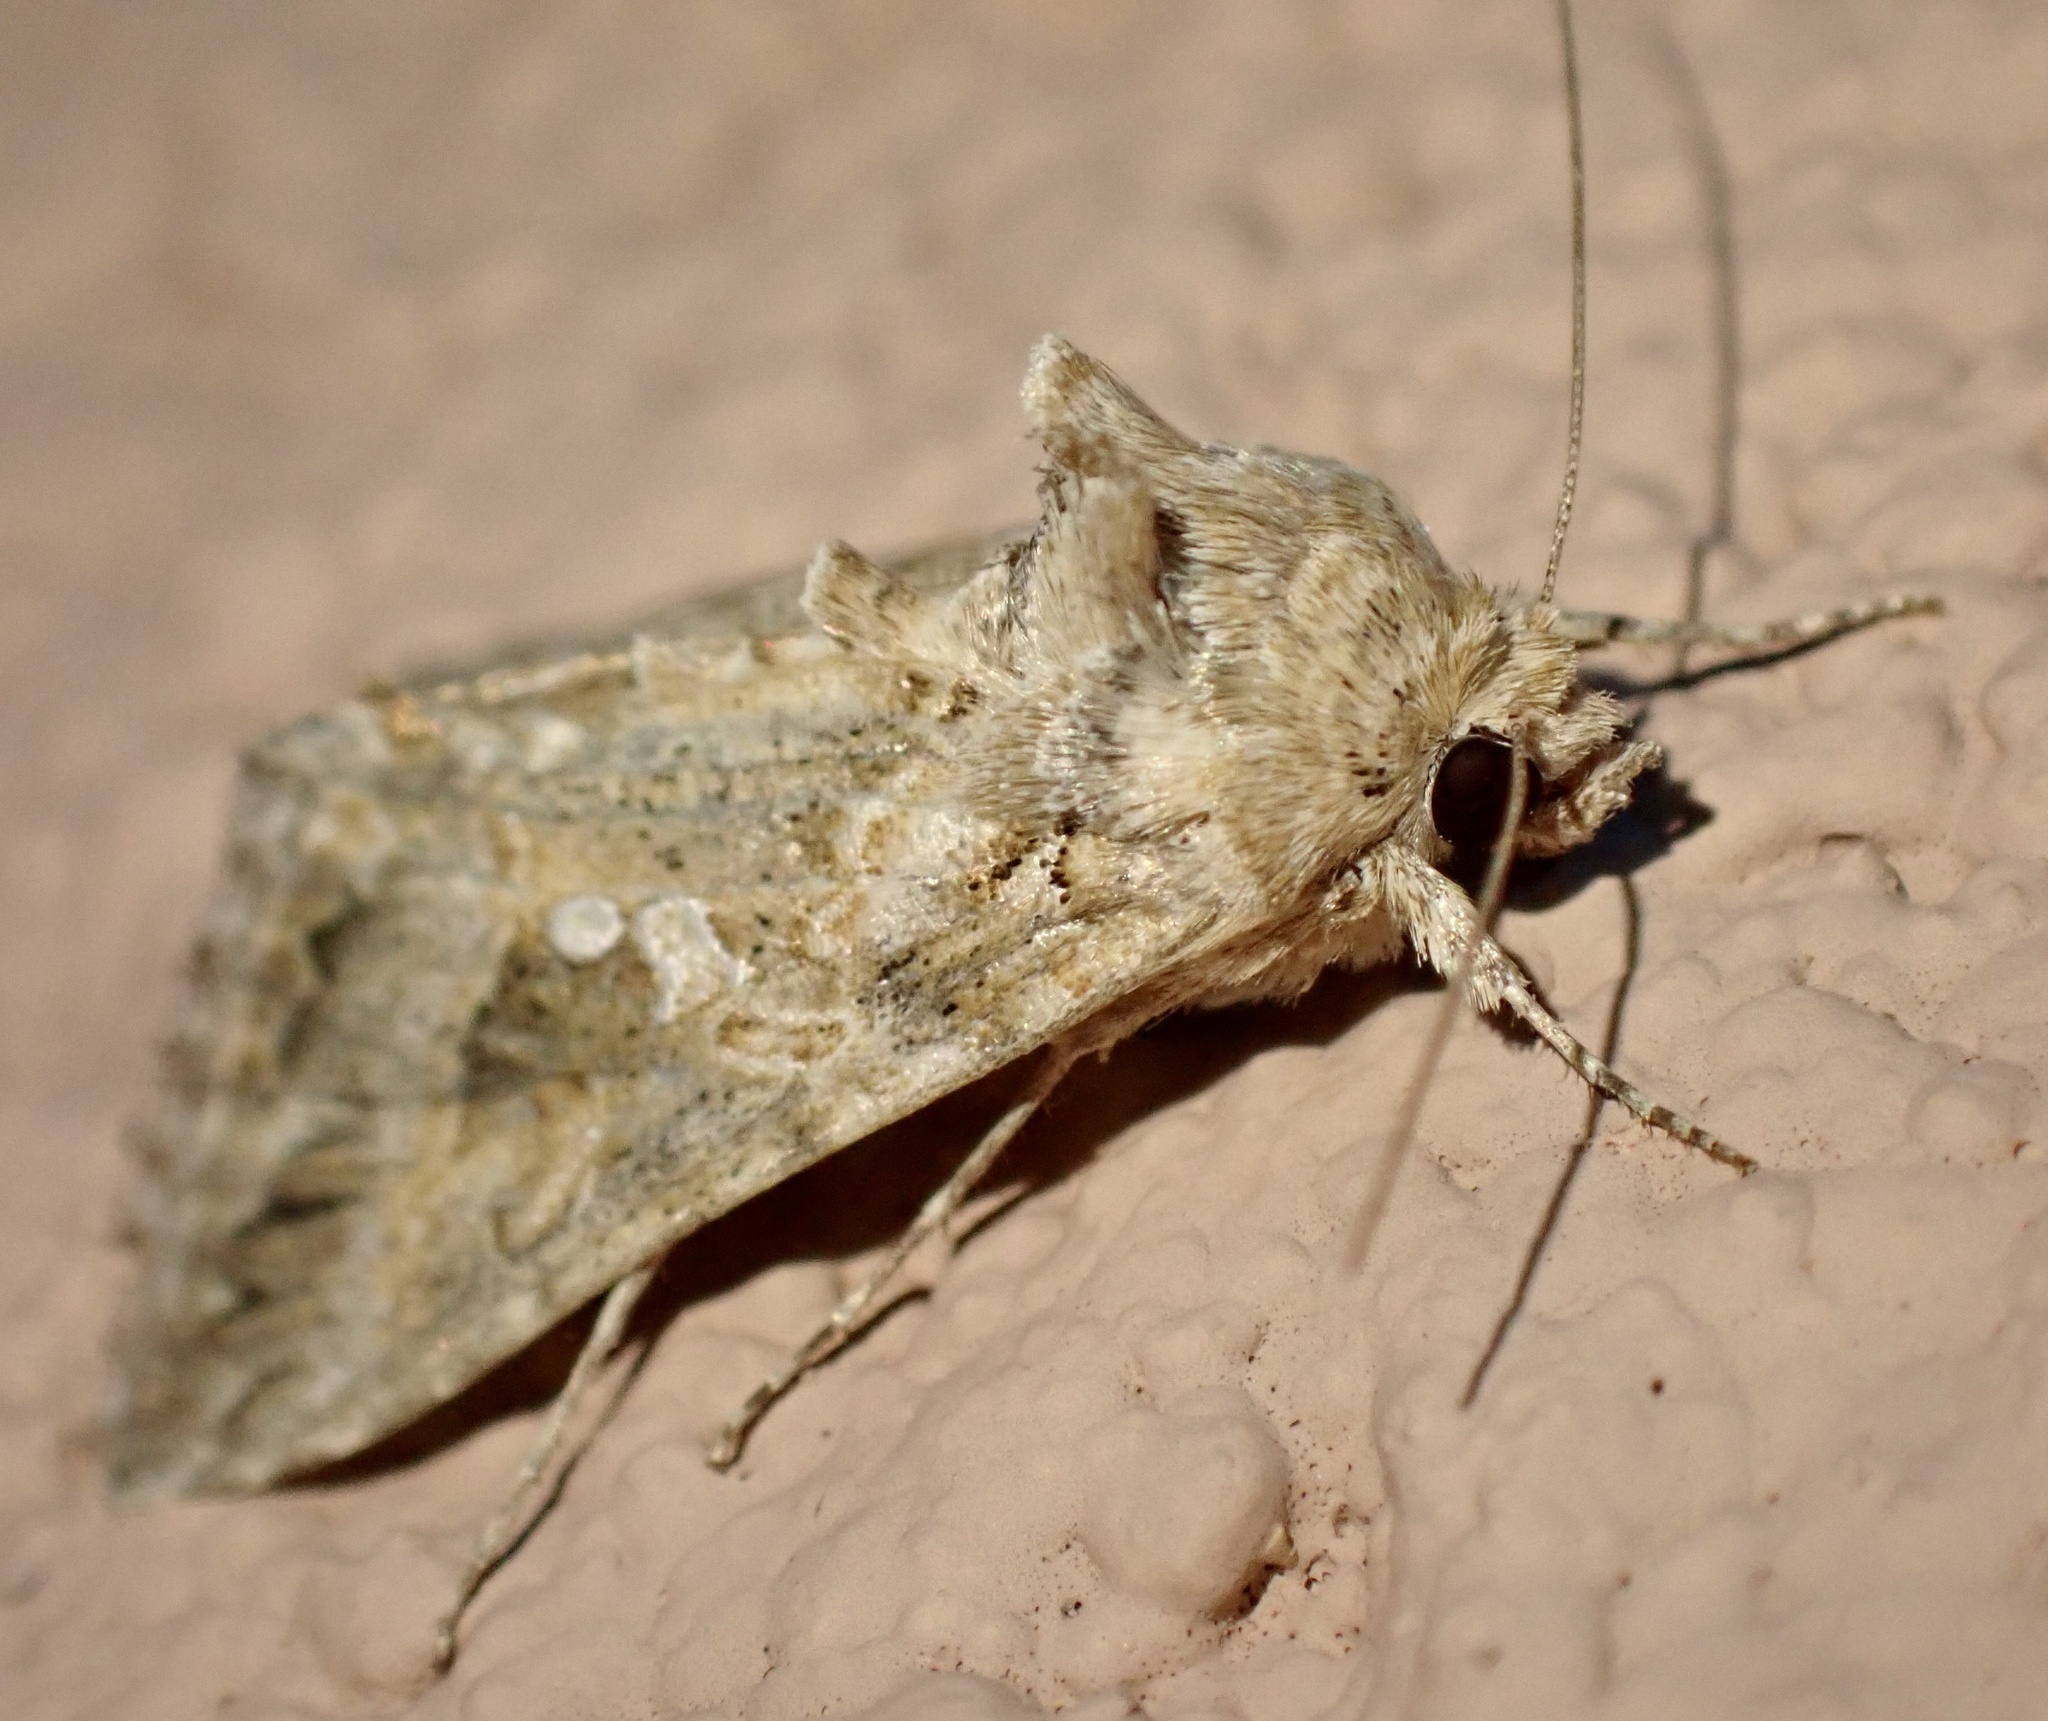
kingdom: Animalia
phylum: Arthropoda
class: Insecta
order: Lepidoptera
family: Noctuidae
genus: Trichoplusia
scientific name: Trichoplusia ni
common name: Ni moth
